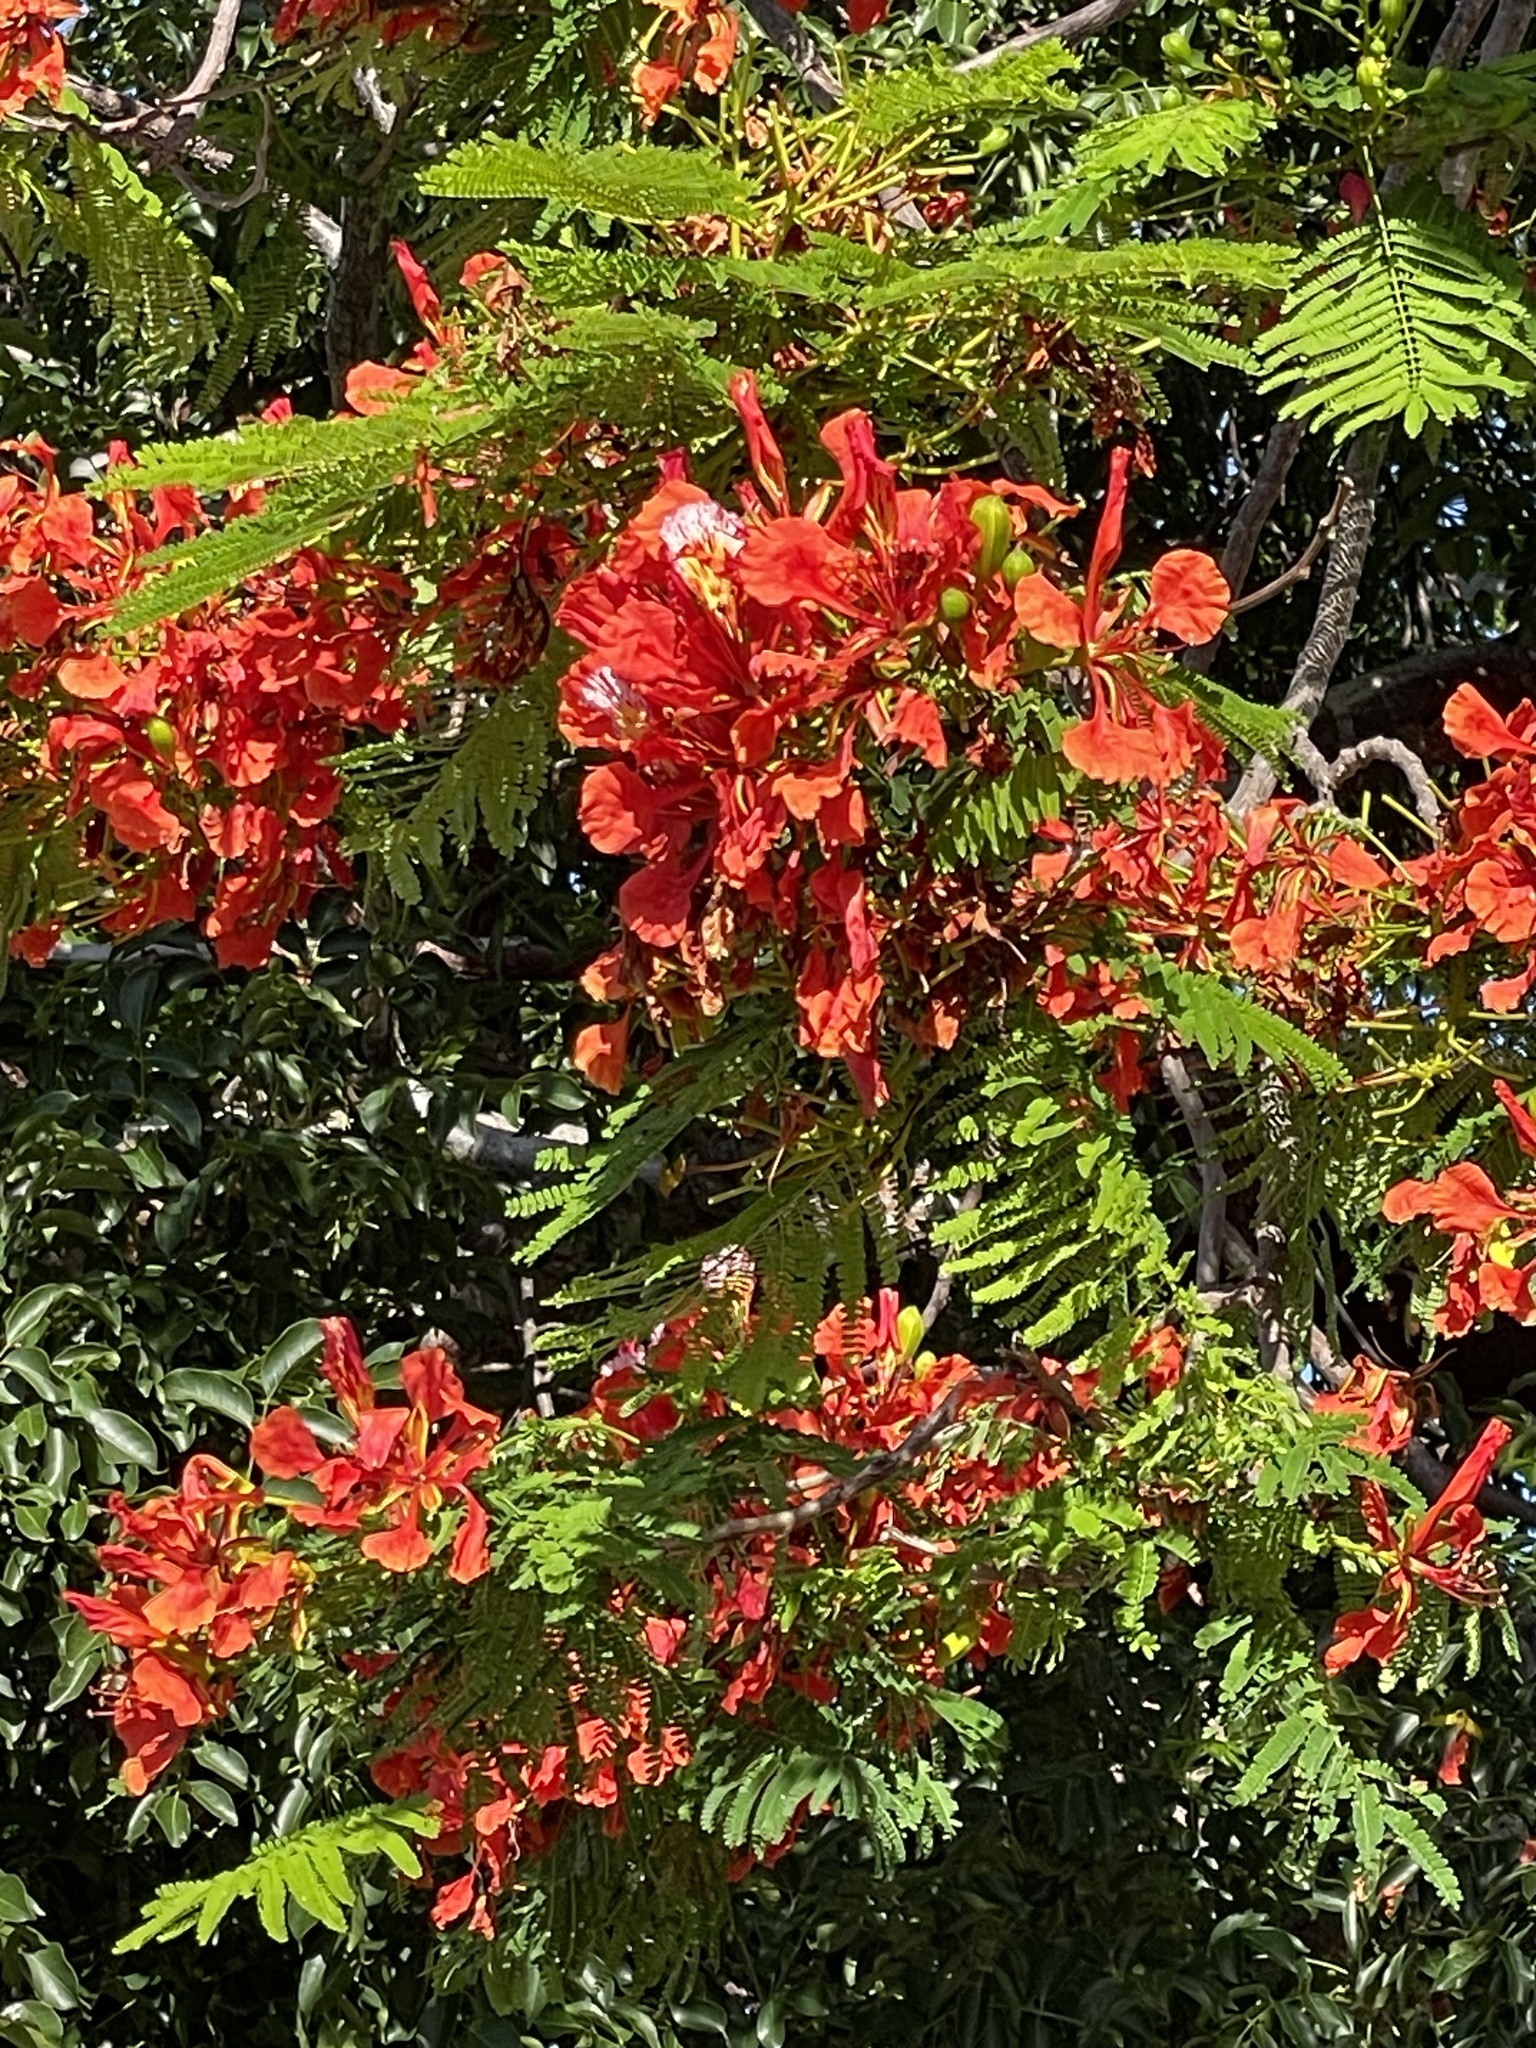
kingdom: Plantae
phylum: Tracheophyta
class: Magnoliopsida
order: Fabales
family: Fabaceae
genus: Delonix
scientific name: Delonix regia
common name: Royal poinciana
